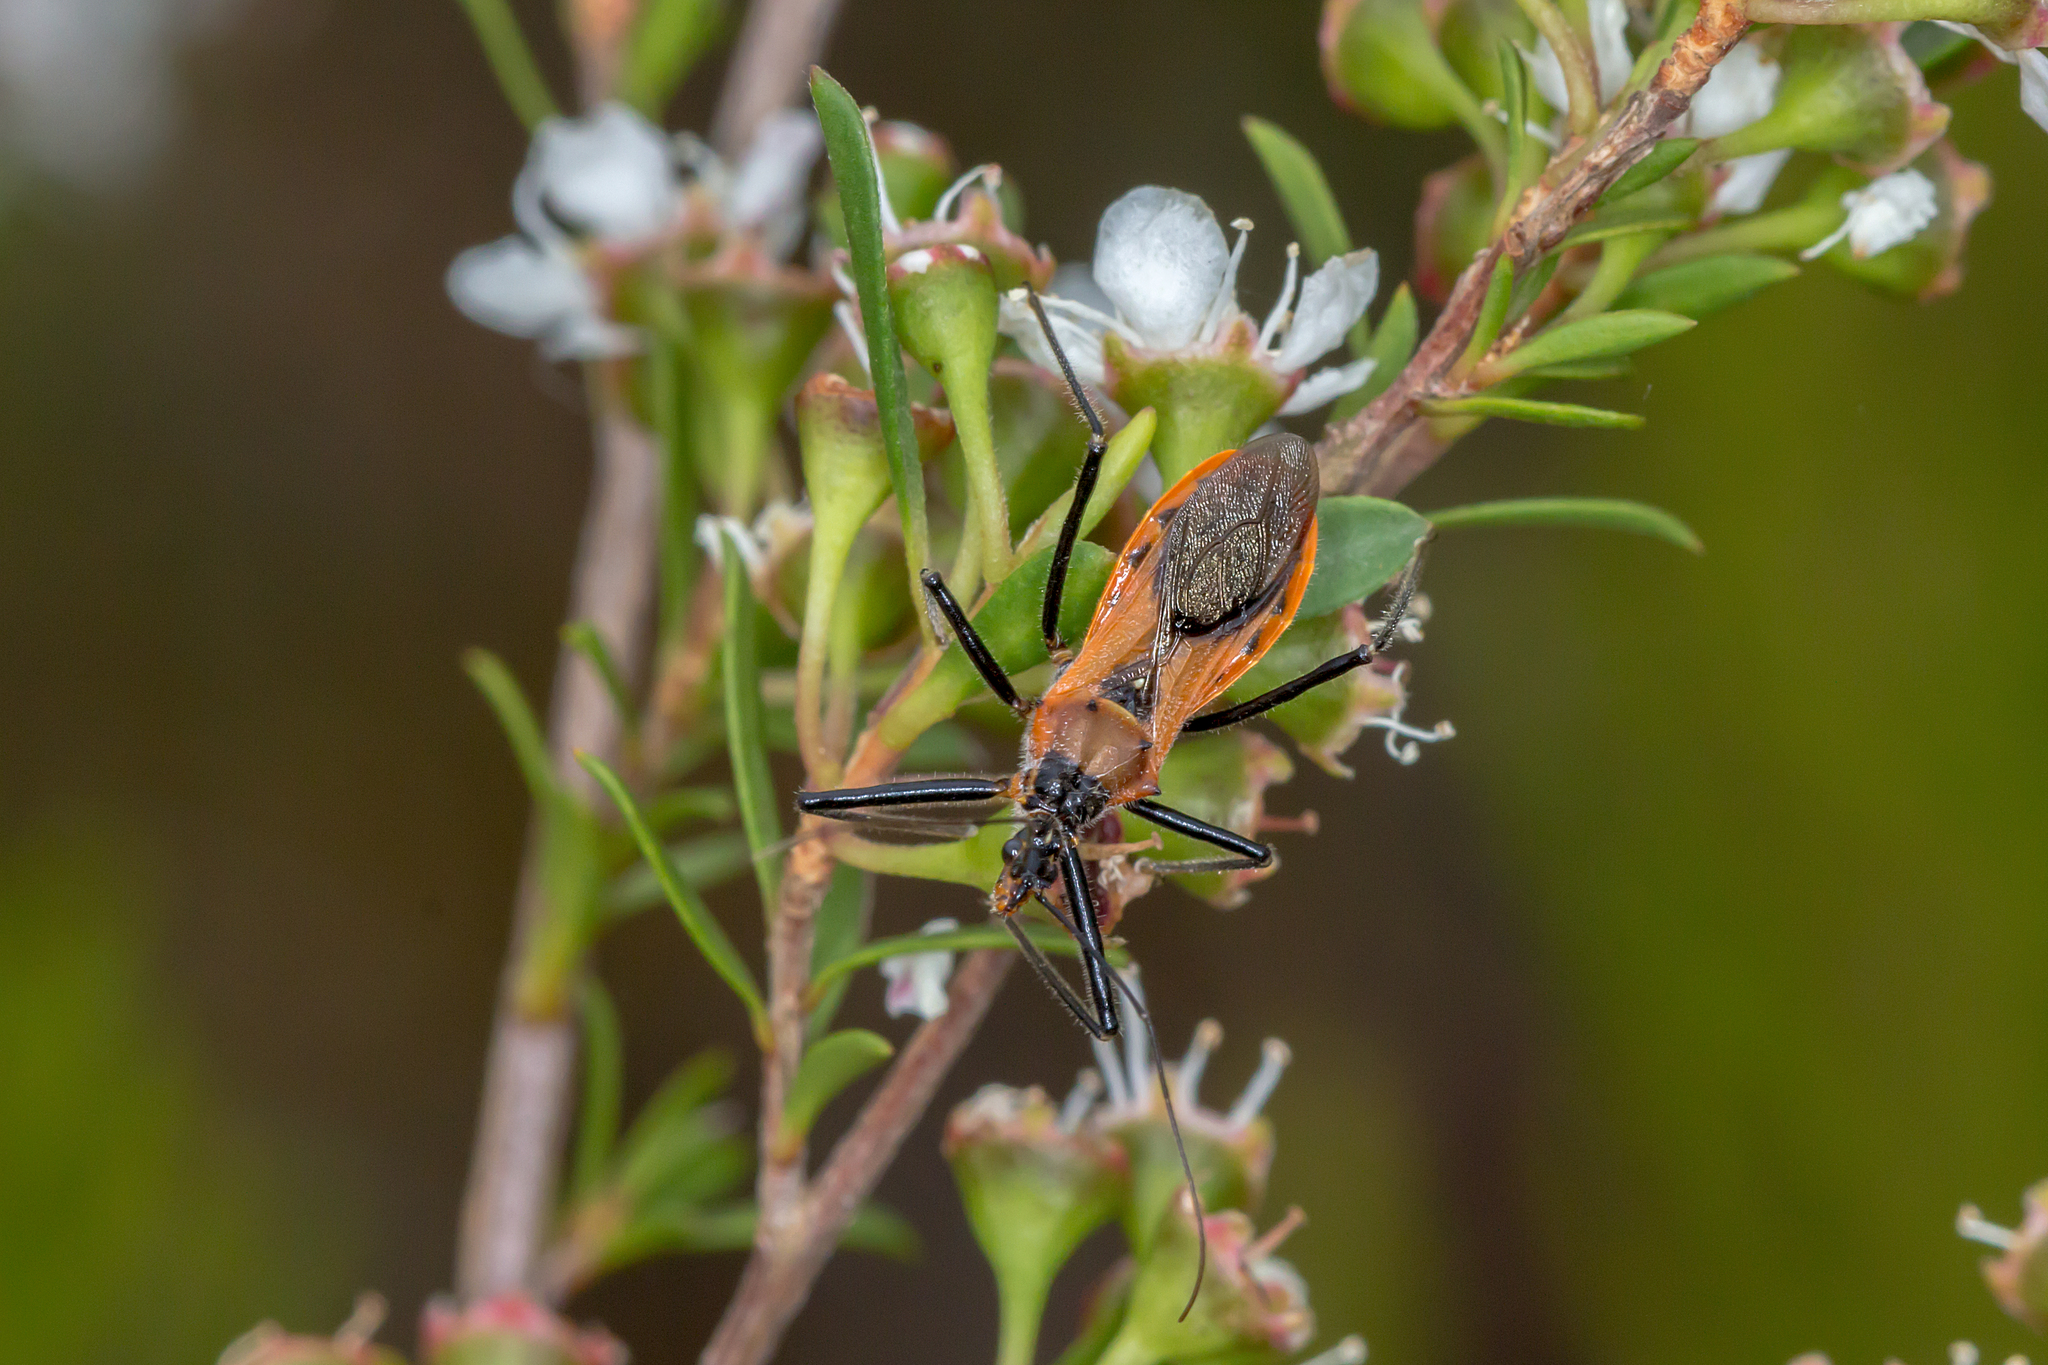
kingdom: Animalia
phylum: Arthropoda
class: Insecta
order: Hemiptera
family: Reduviidae
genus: Gminatus
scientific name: Gminatus australis
